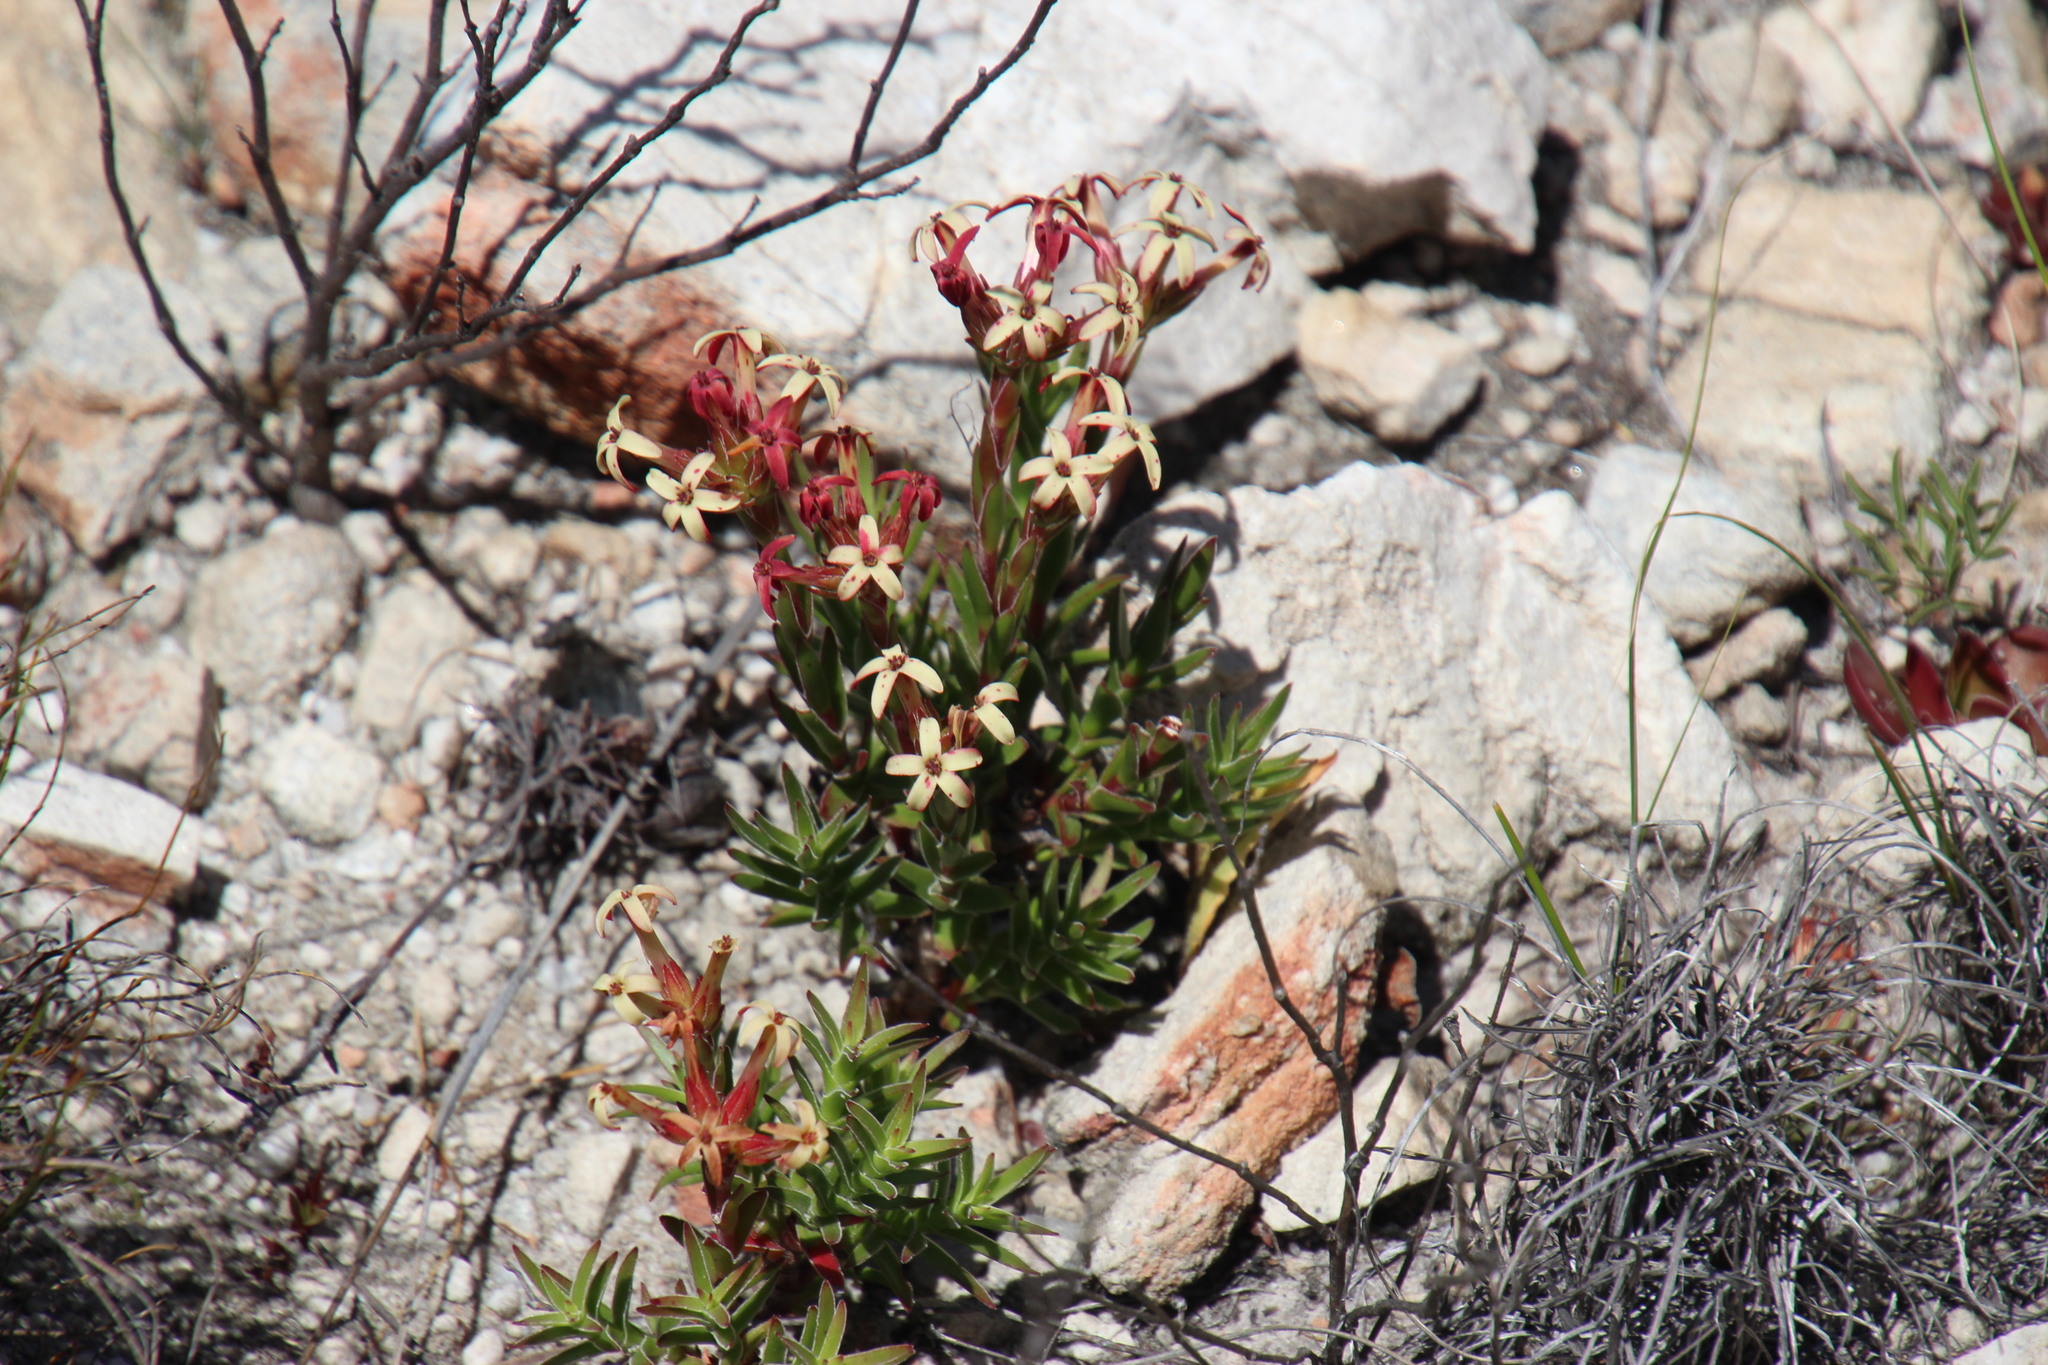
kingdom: Plantae
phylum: Tracheophyta
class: Magnoliopsida
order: Saxifragales
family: Crassulaceae
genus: Crassula
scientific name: Crassula fascicularis
